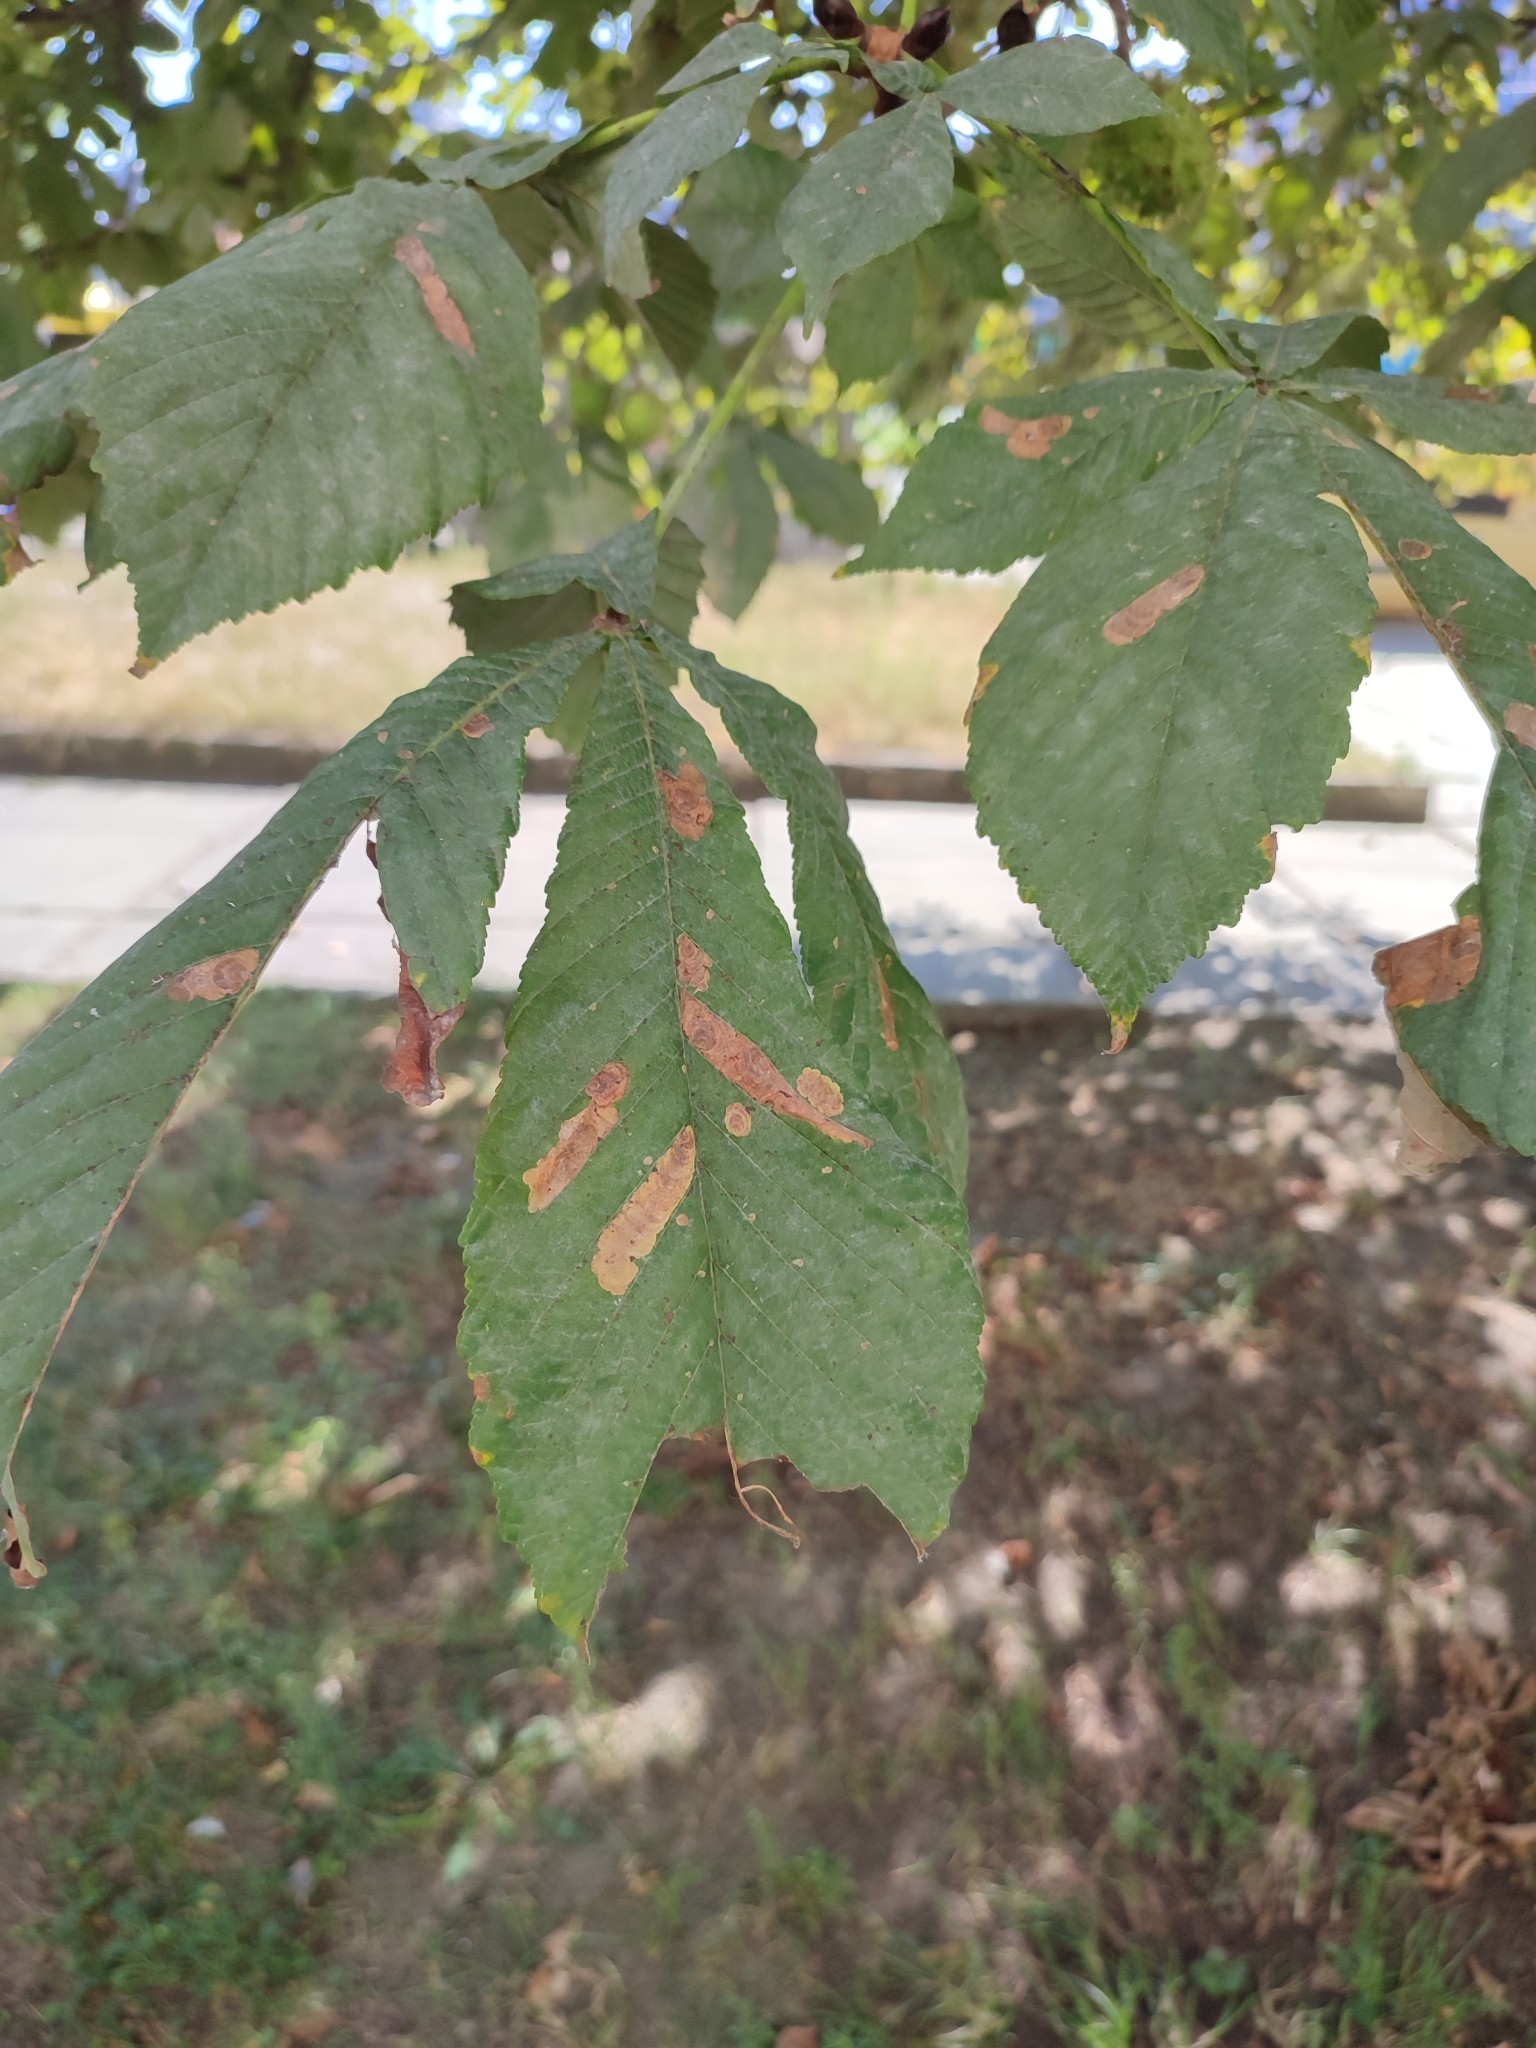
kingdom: Animalia
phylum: Arthropoda
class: Insecta
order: Lepidoptera
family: Gracillariidae
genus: Cameraria
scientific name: Cameraria ohridella
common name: Horse-chestnut leaf-miner
